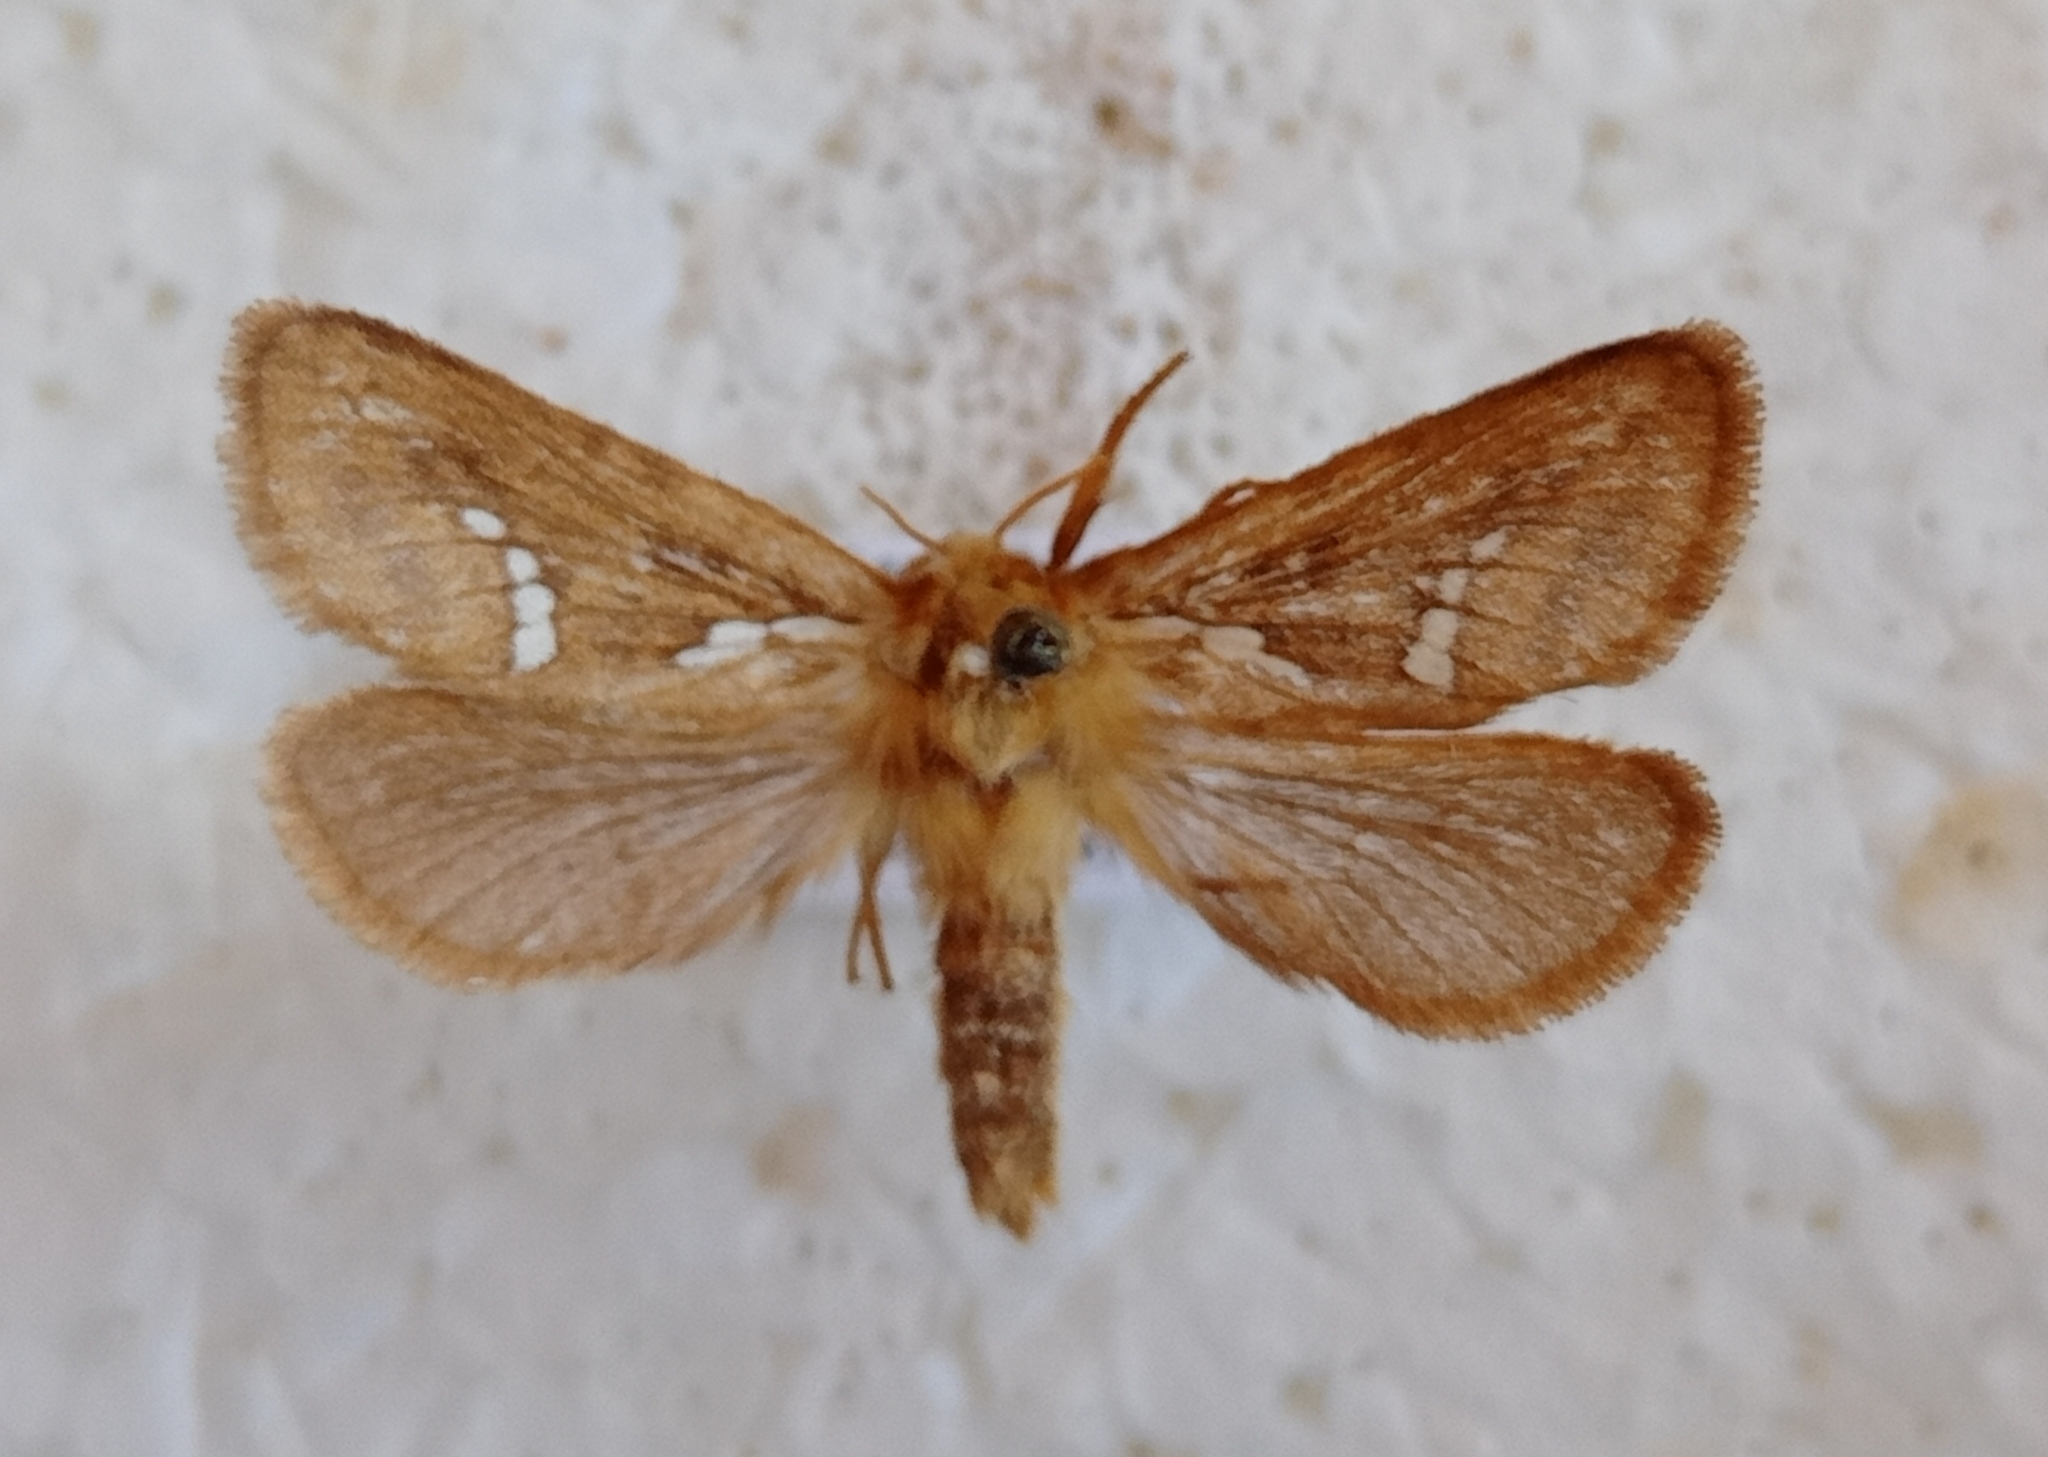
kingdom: Animalia
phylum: Arthropoda
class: Insecta
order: Lepidoptera
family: Hepialidae
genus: Korscheltellus
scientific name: Korscheltellus lupulina
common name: Common swift
